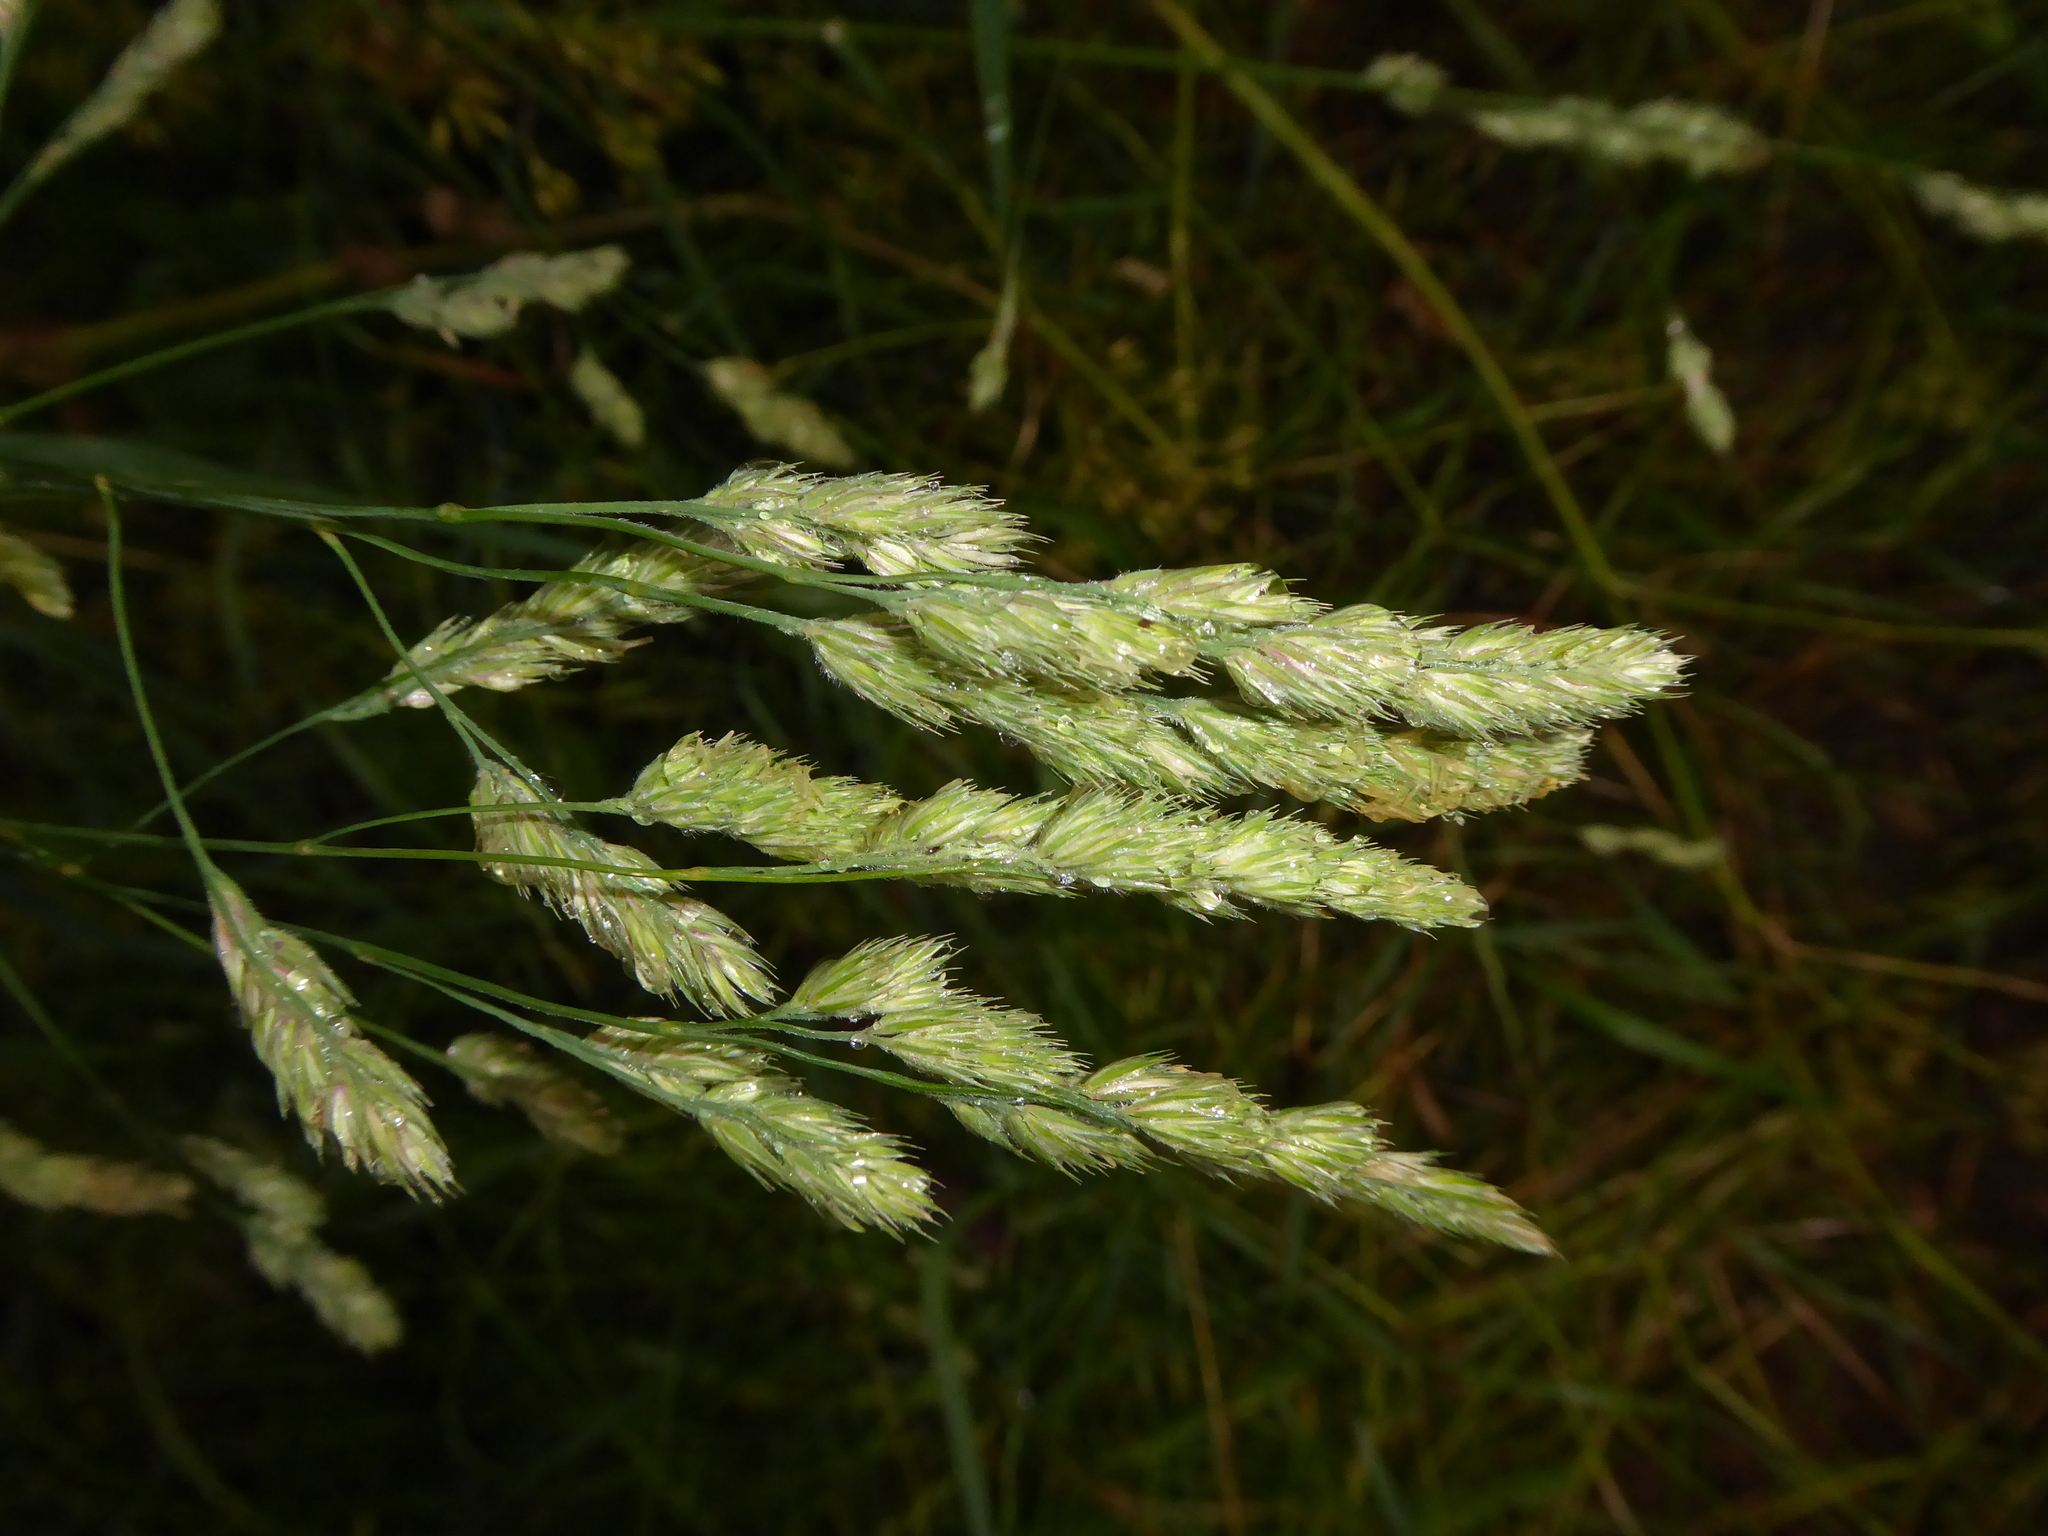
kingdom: Plantae
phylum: Tracheophyta
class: Liliopsida
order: Poales
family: Poaceae
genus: Dactylis
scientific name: Dactylis glomerata
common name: Orchardgrass
